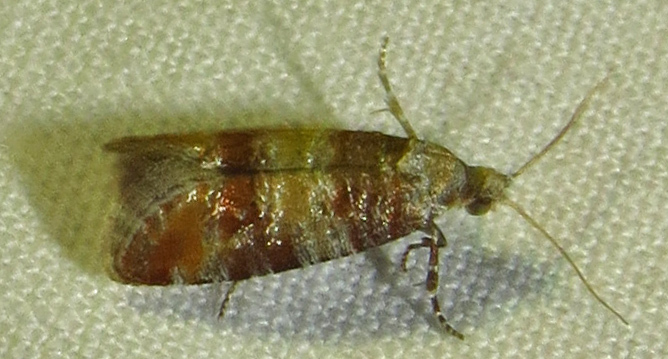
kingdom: Animalia
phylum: Arthropoda
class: Insecta
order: Lepidoptera
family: Tortricidae
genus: Rhyacionia
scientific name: Rhyacionia rigidana
